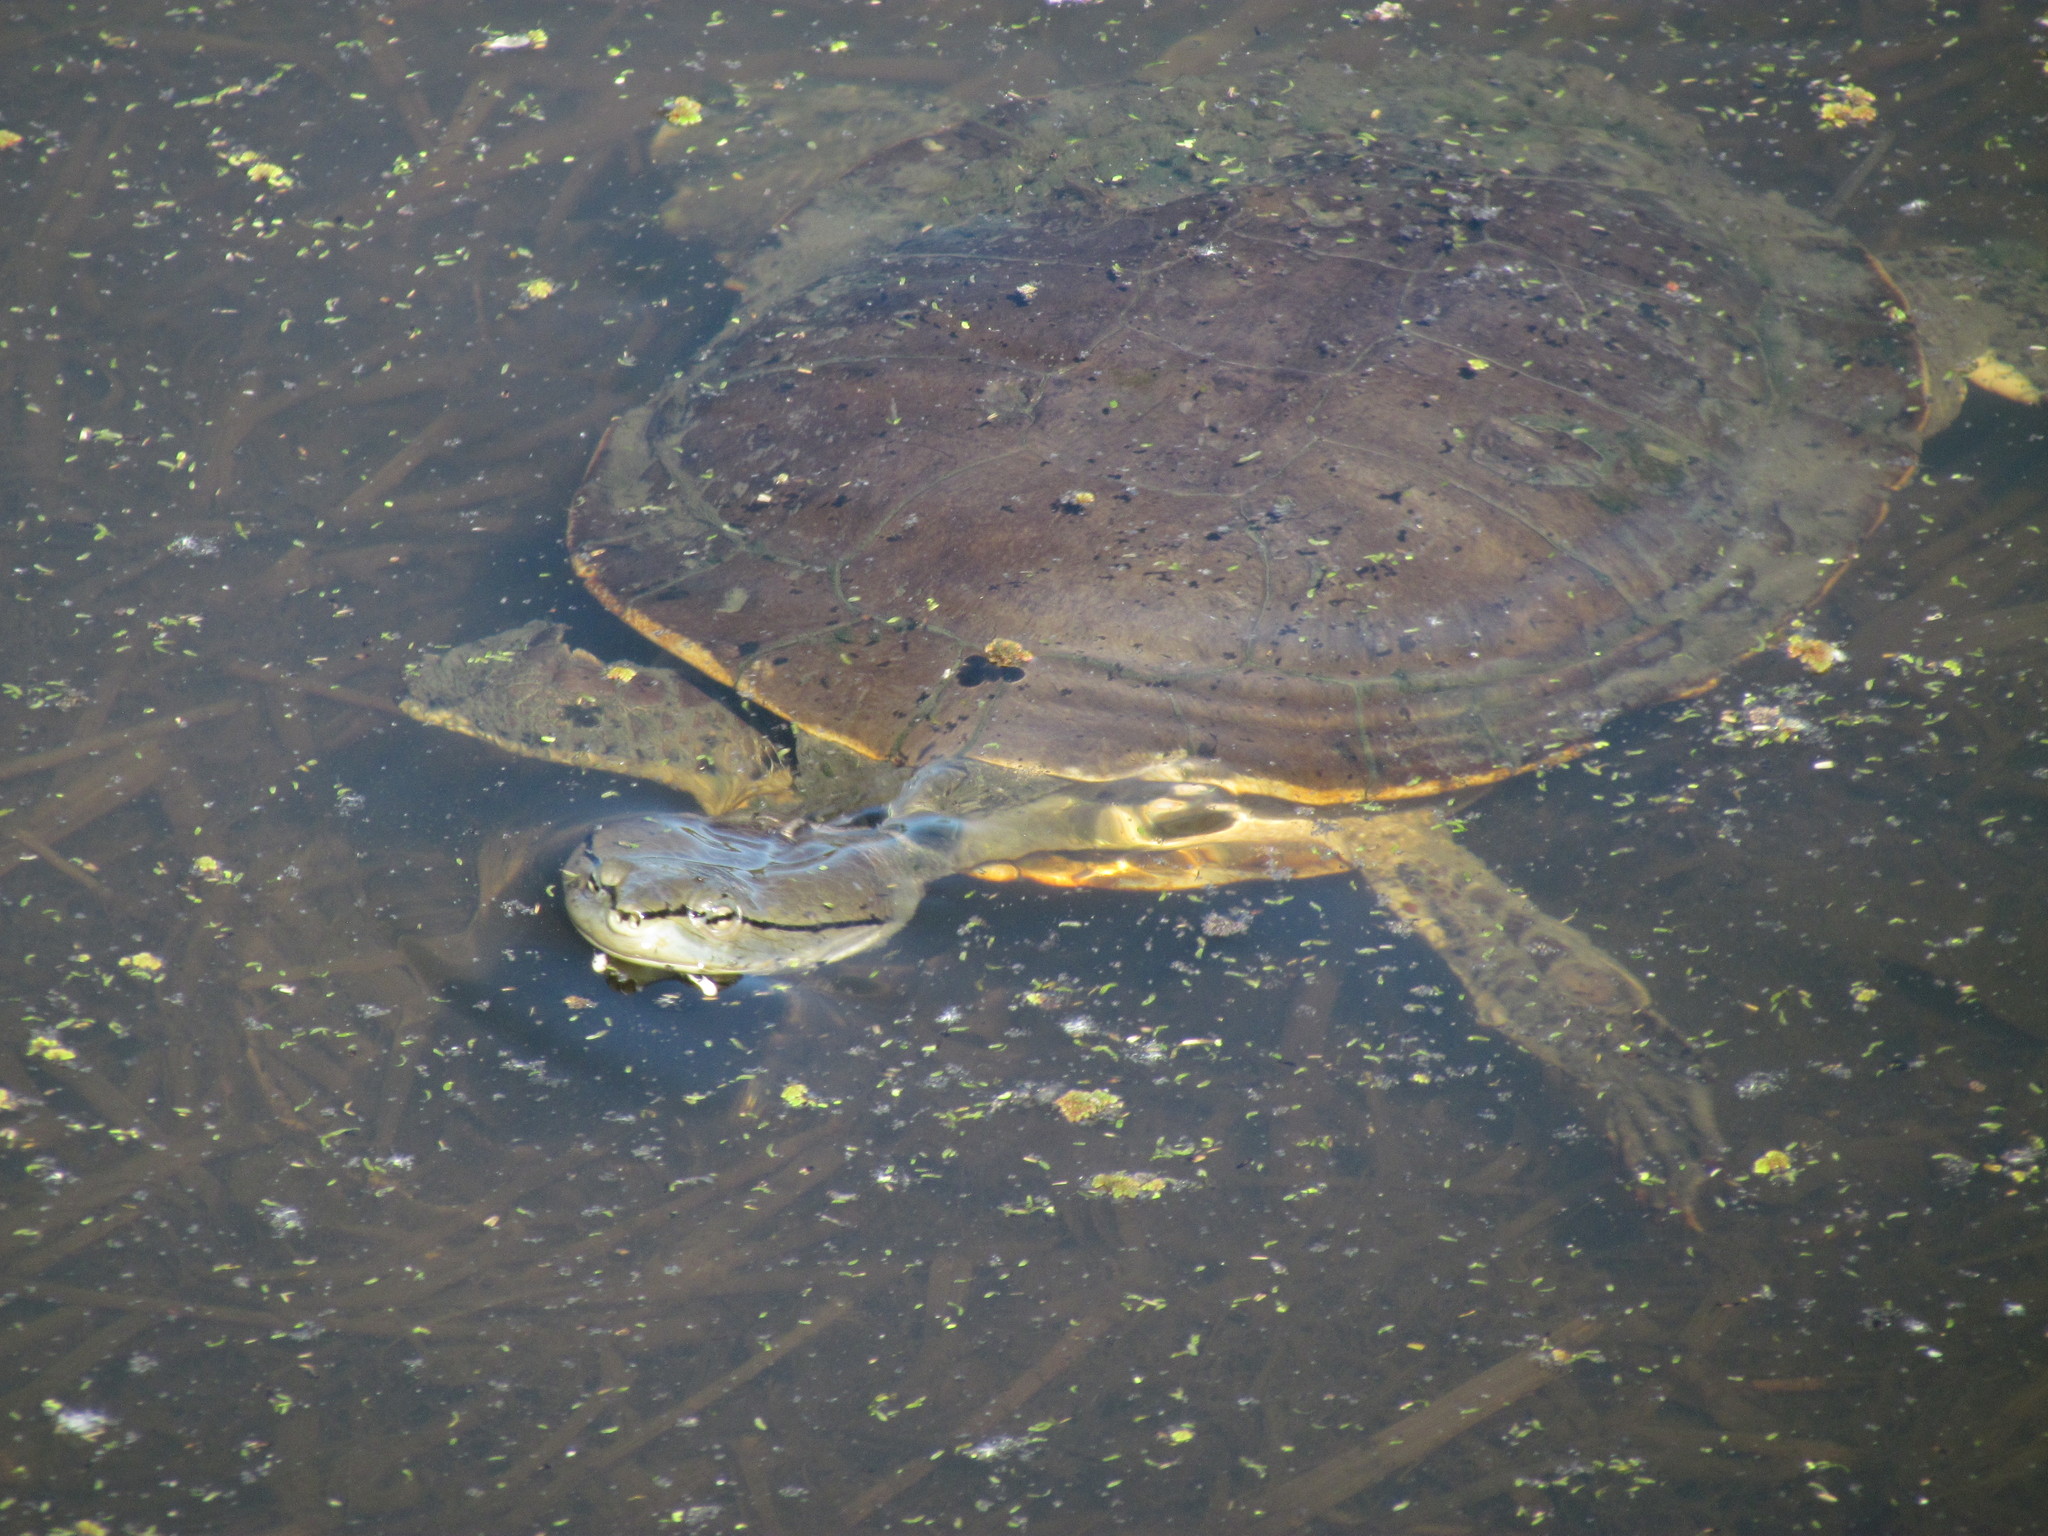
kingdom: Animalia
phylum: Chordata
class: Testudines
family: Chelidae
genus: Phrynops
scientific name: Phrynops hilarii
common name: Side-necked turtle of saint hillaire
